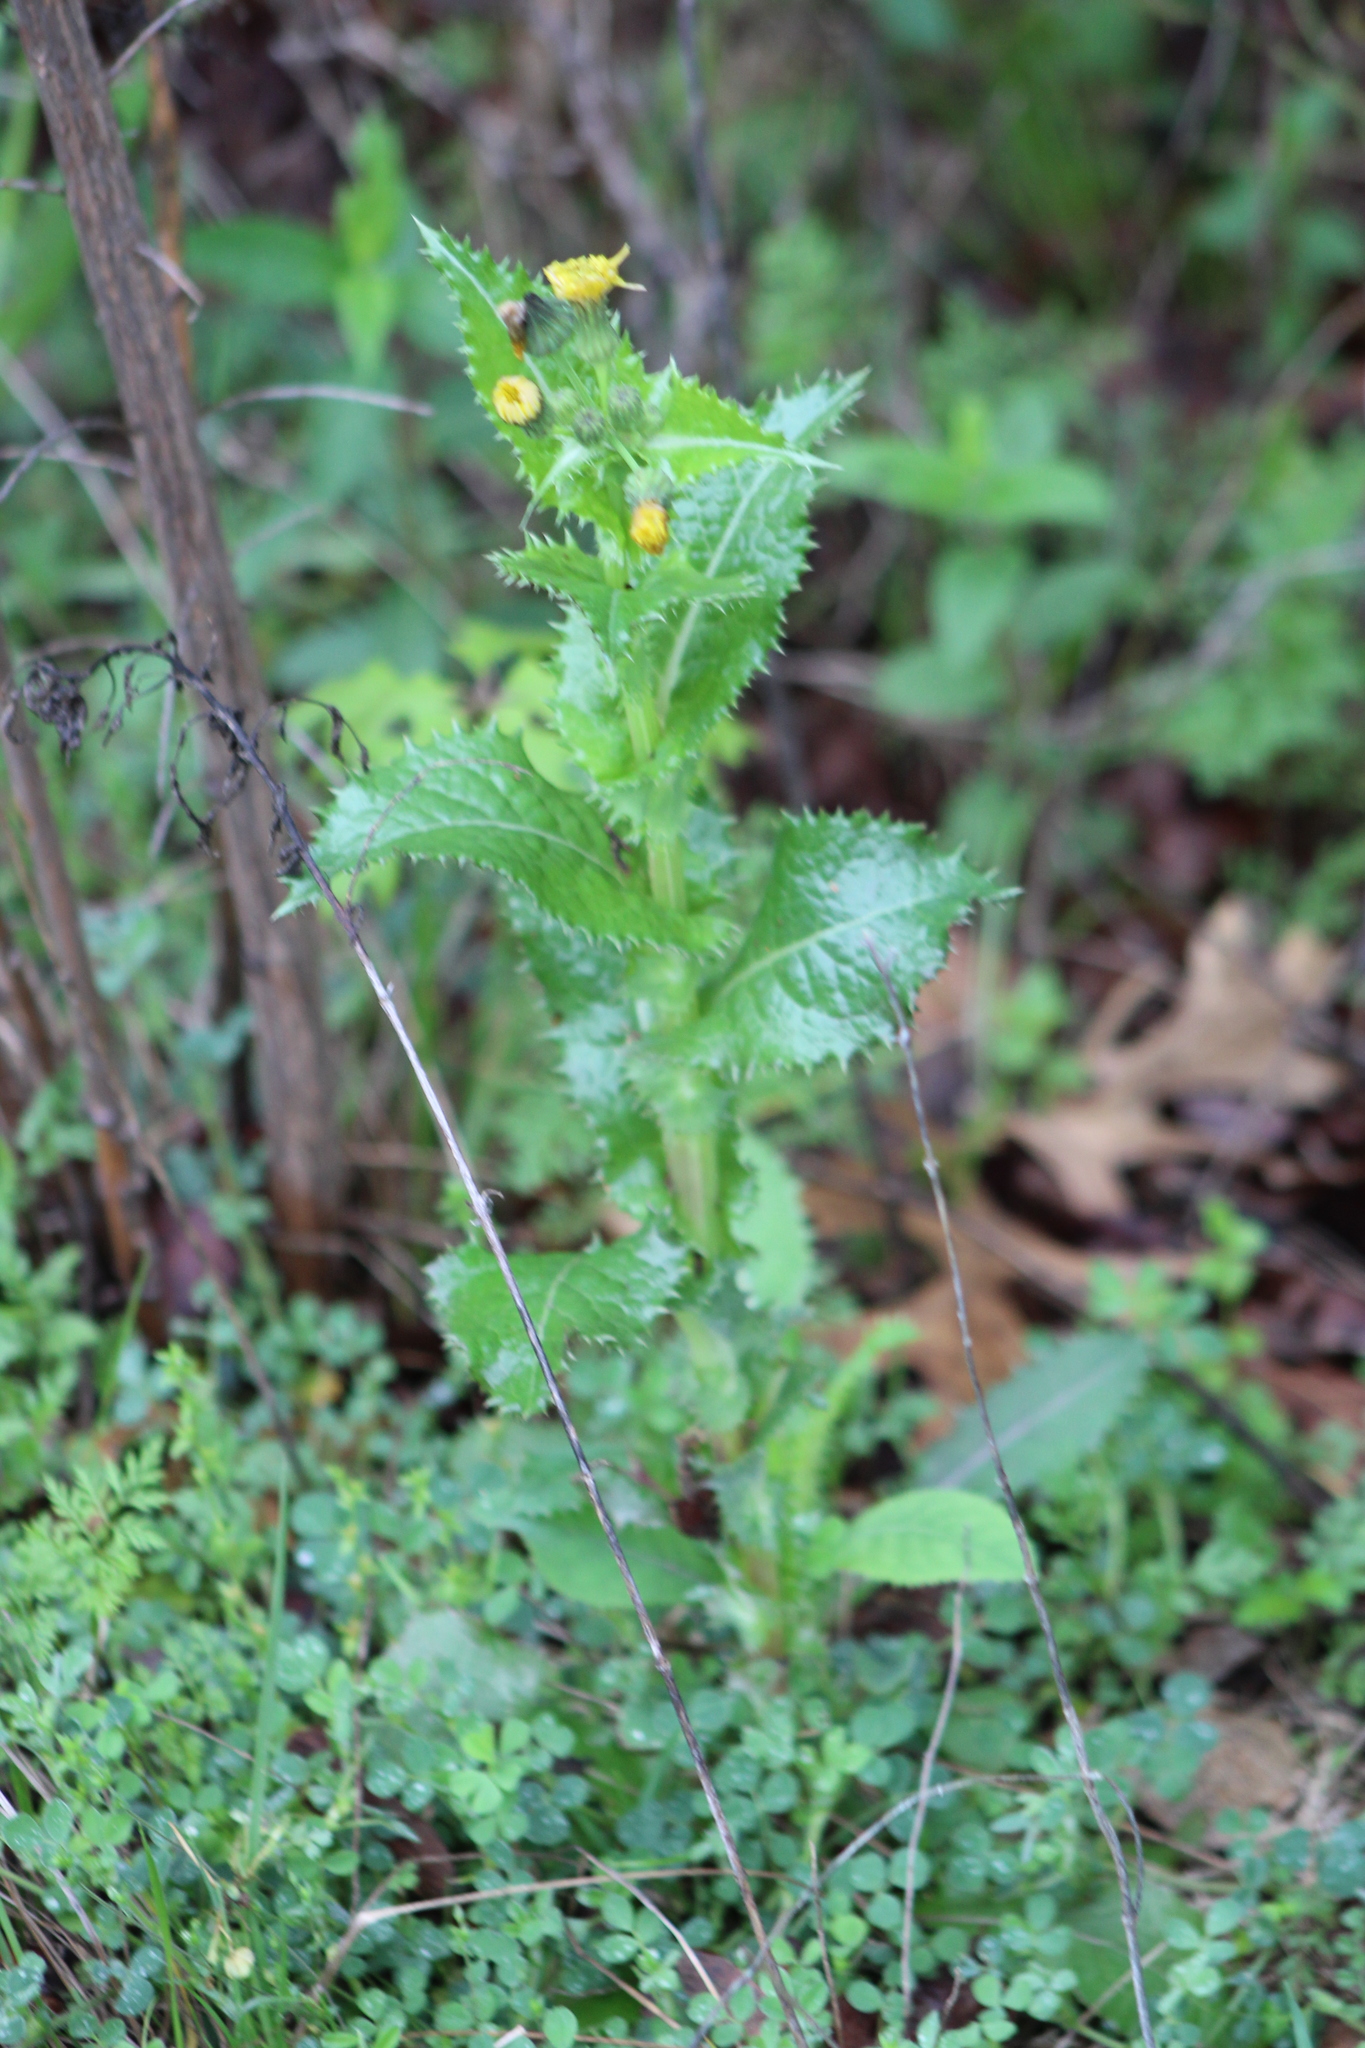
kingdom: Plantae
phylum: Tracheophyta
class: Magnoliopsida
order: Asterales
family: Asteraceae
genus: Sonchus
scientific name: Sonchus asper
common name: Prickly sow-thistle
